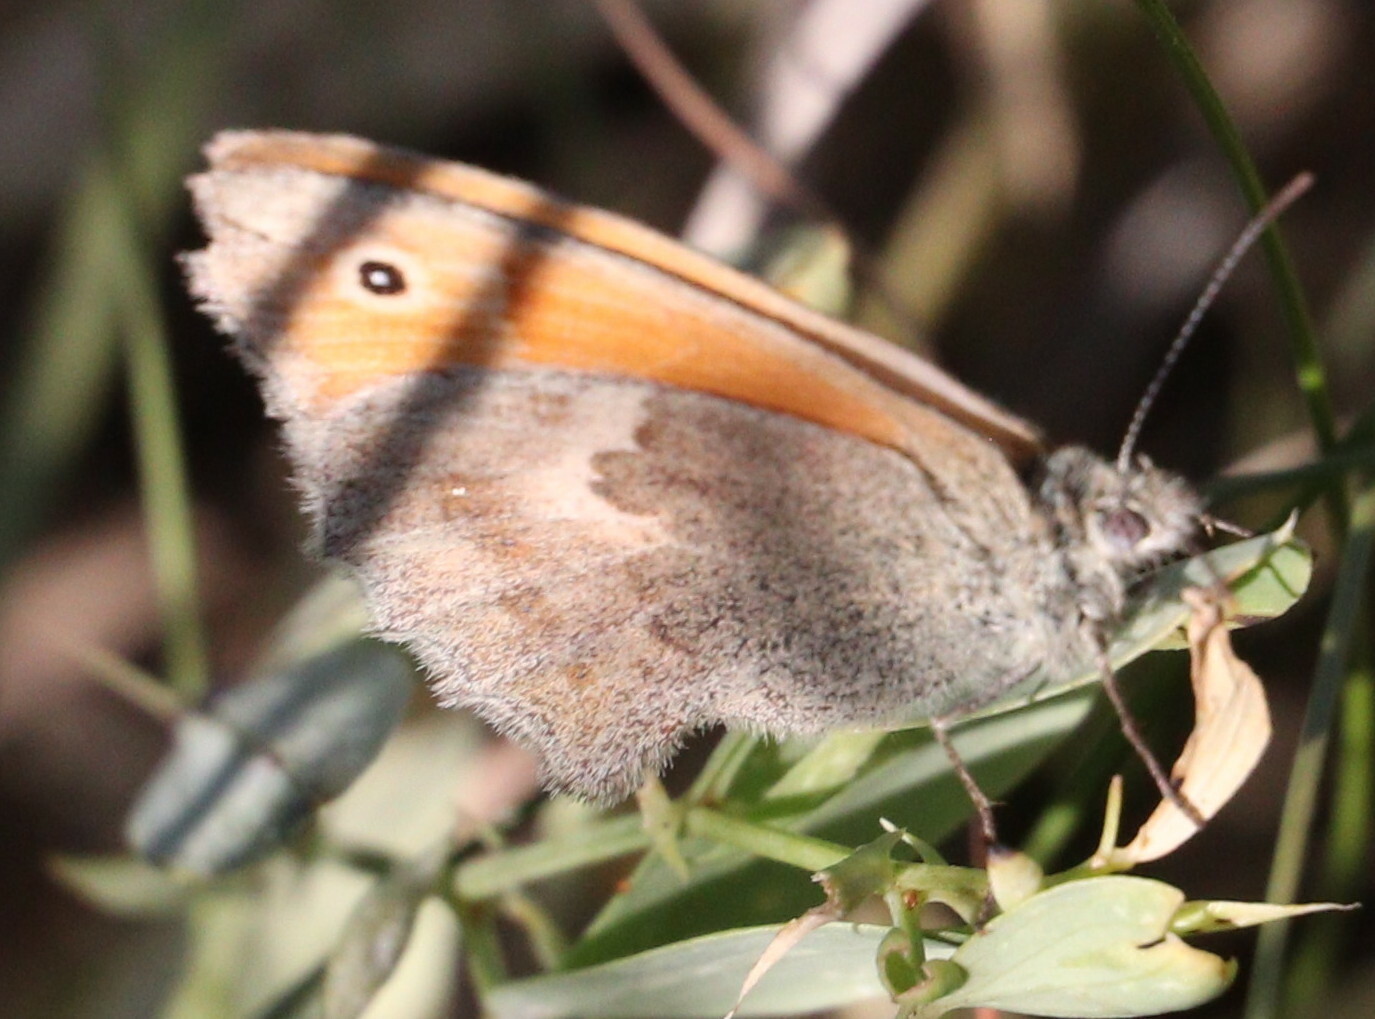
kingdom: Animalia
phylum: Arthropoda
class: Insecta
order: Lepidoptera
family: Nymphalidae
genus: Coenonympha
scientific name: Coenonympha pamphilus
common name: Small heath
